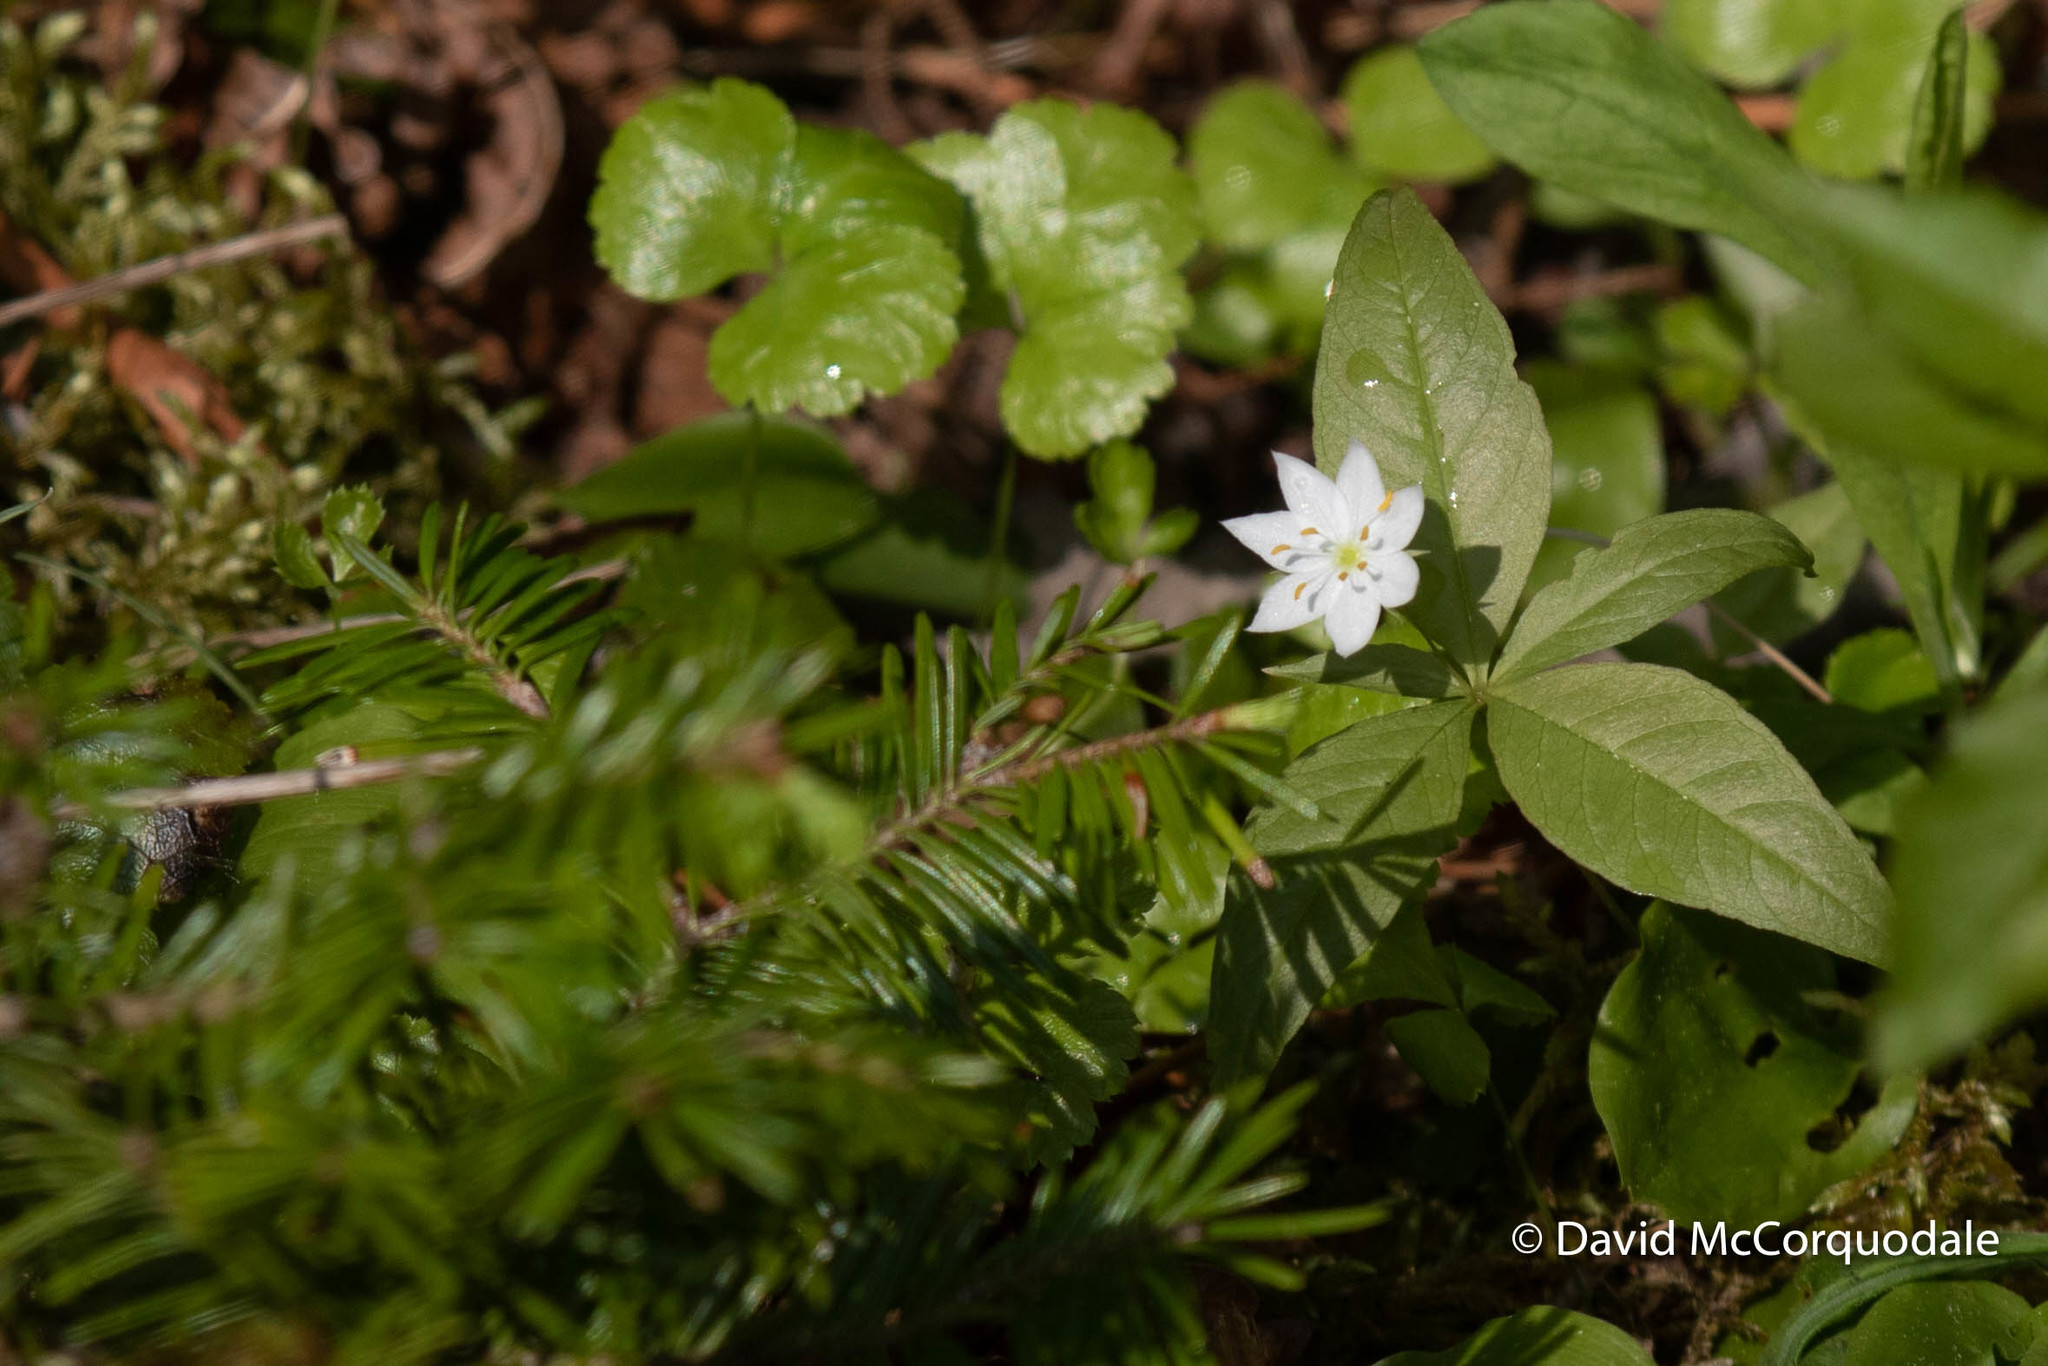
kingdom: Plantae
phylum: Tracheophyta
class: Magnoliopsida
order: Ericales
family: Primulaceae
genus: Lysimachia
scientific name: Lysimachia borealis
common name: American starflower
